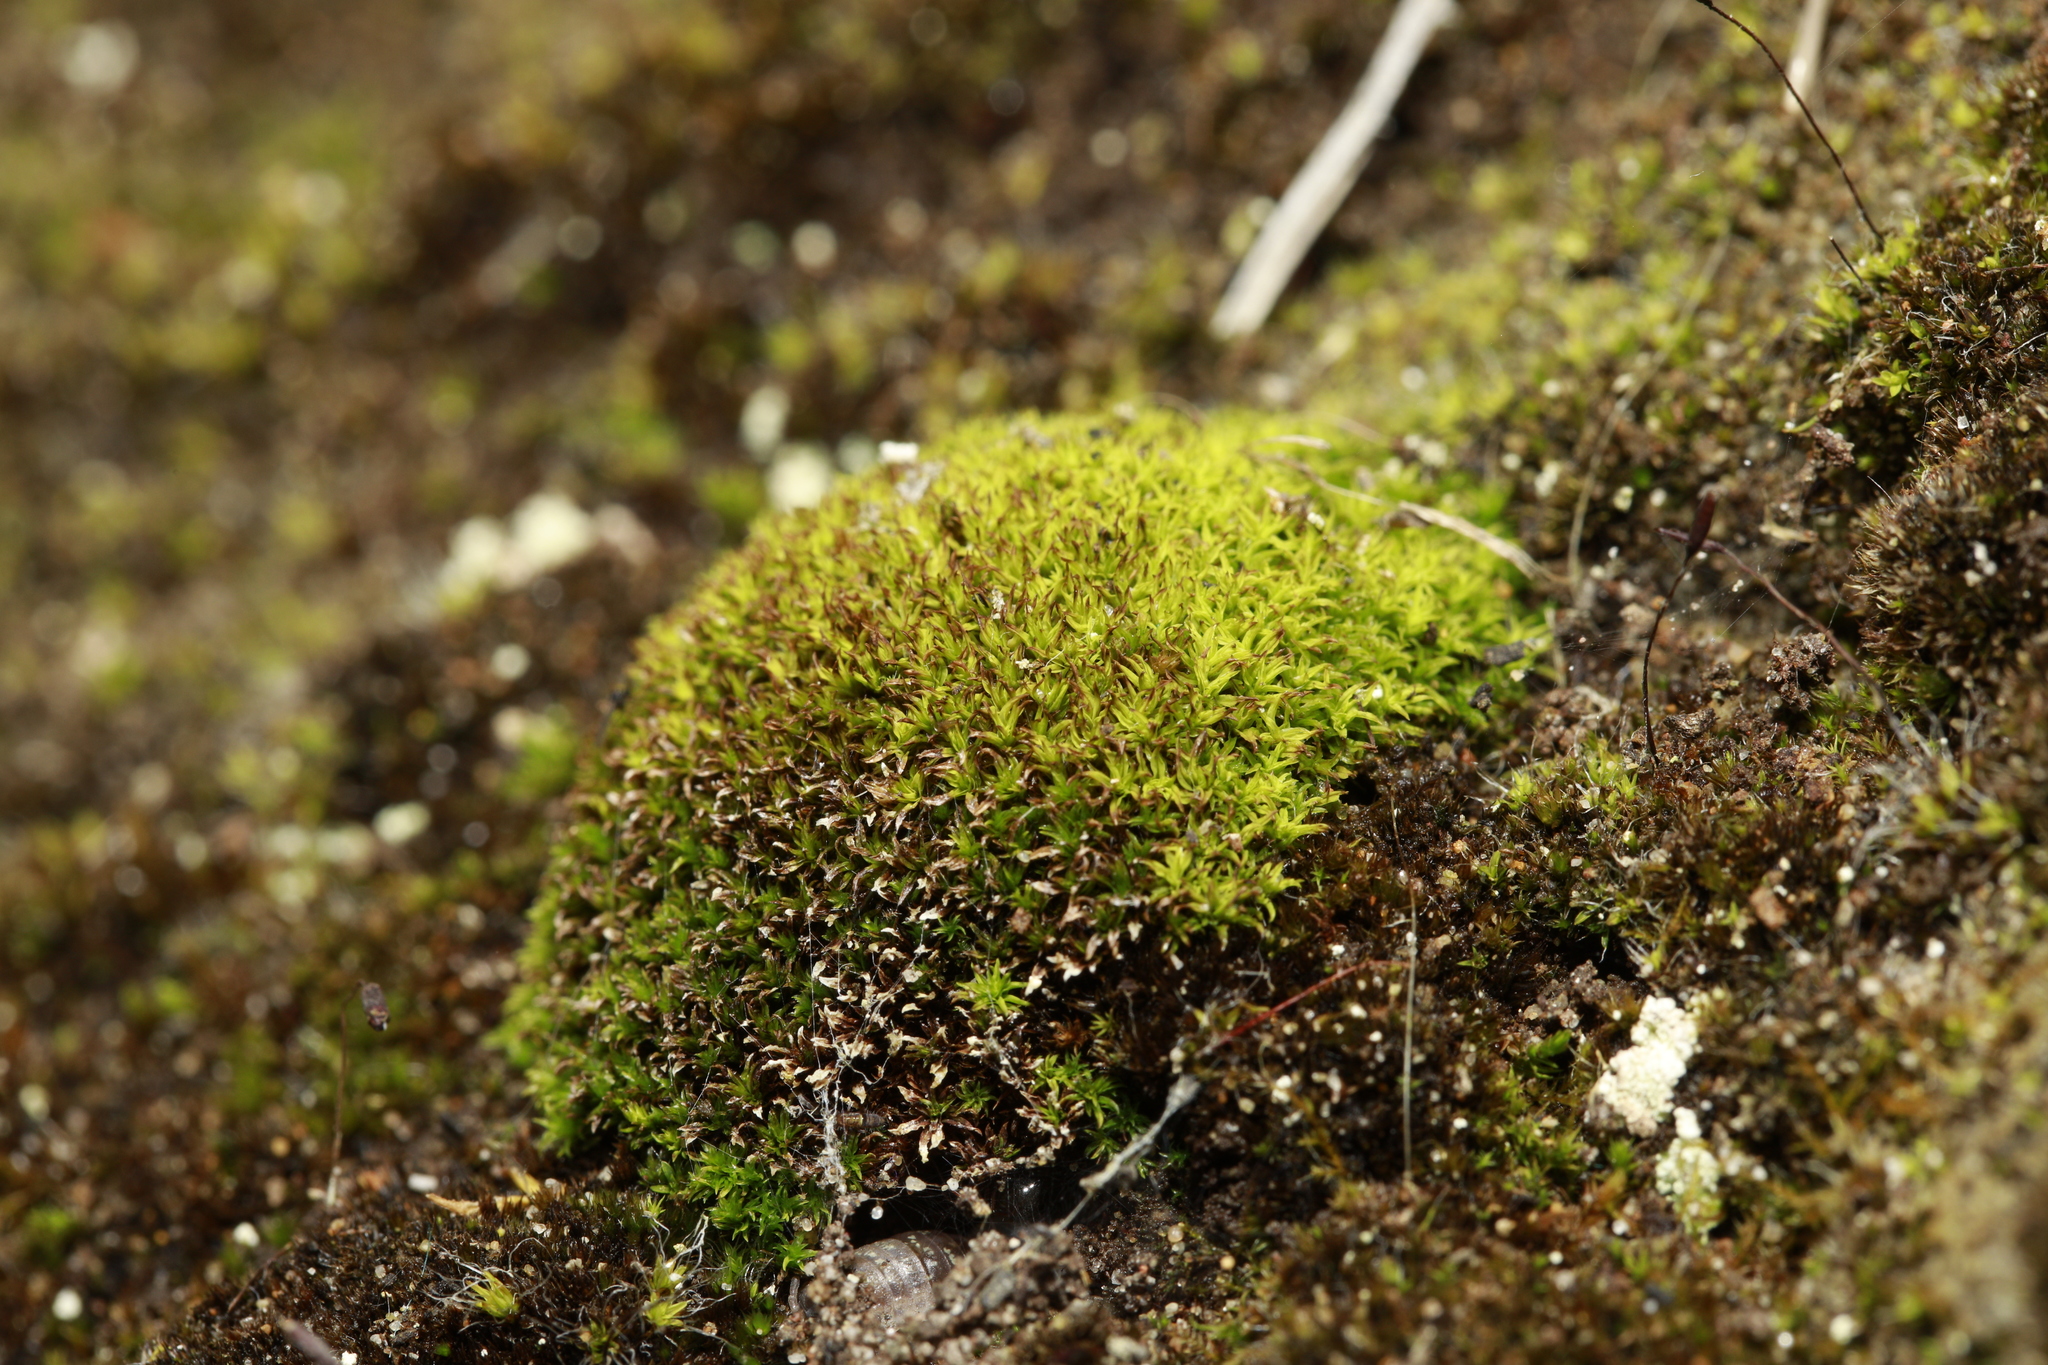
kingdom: Plantae
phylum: Bryophyta
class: Bryopsida
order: Pottiales
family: Pottiaceae
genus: Barbula
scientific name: Barbula unguiculata
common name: Prickly beard moss
